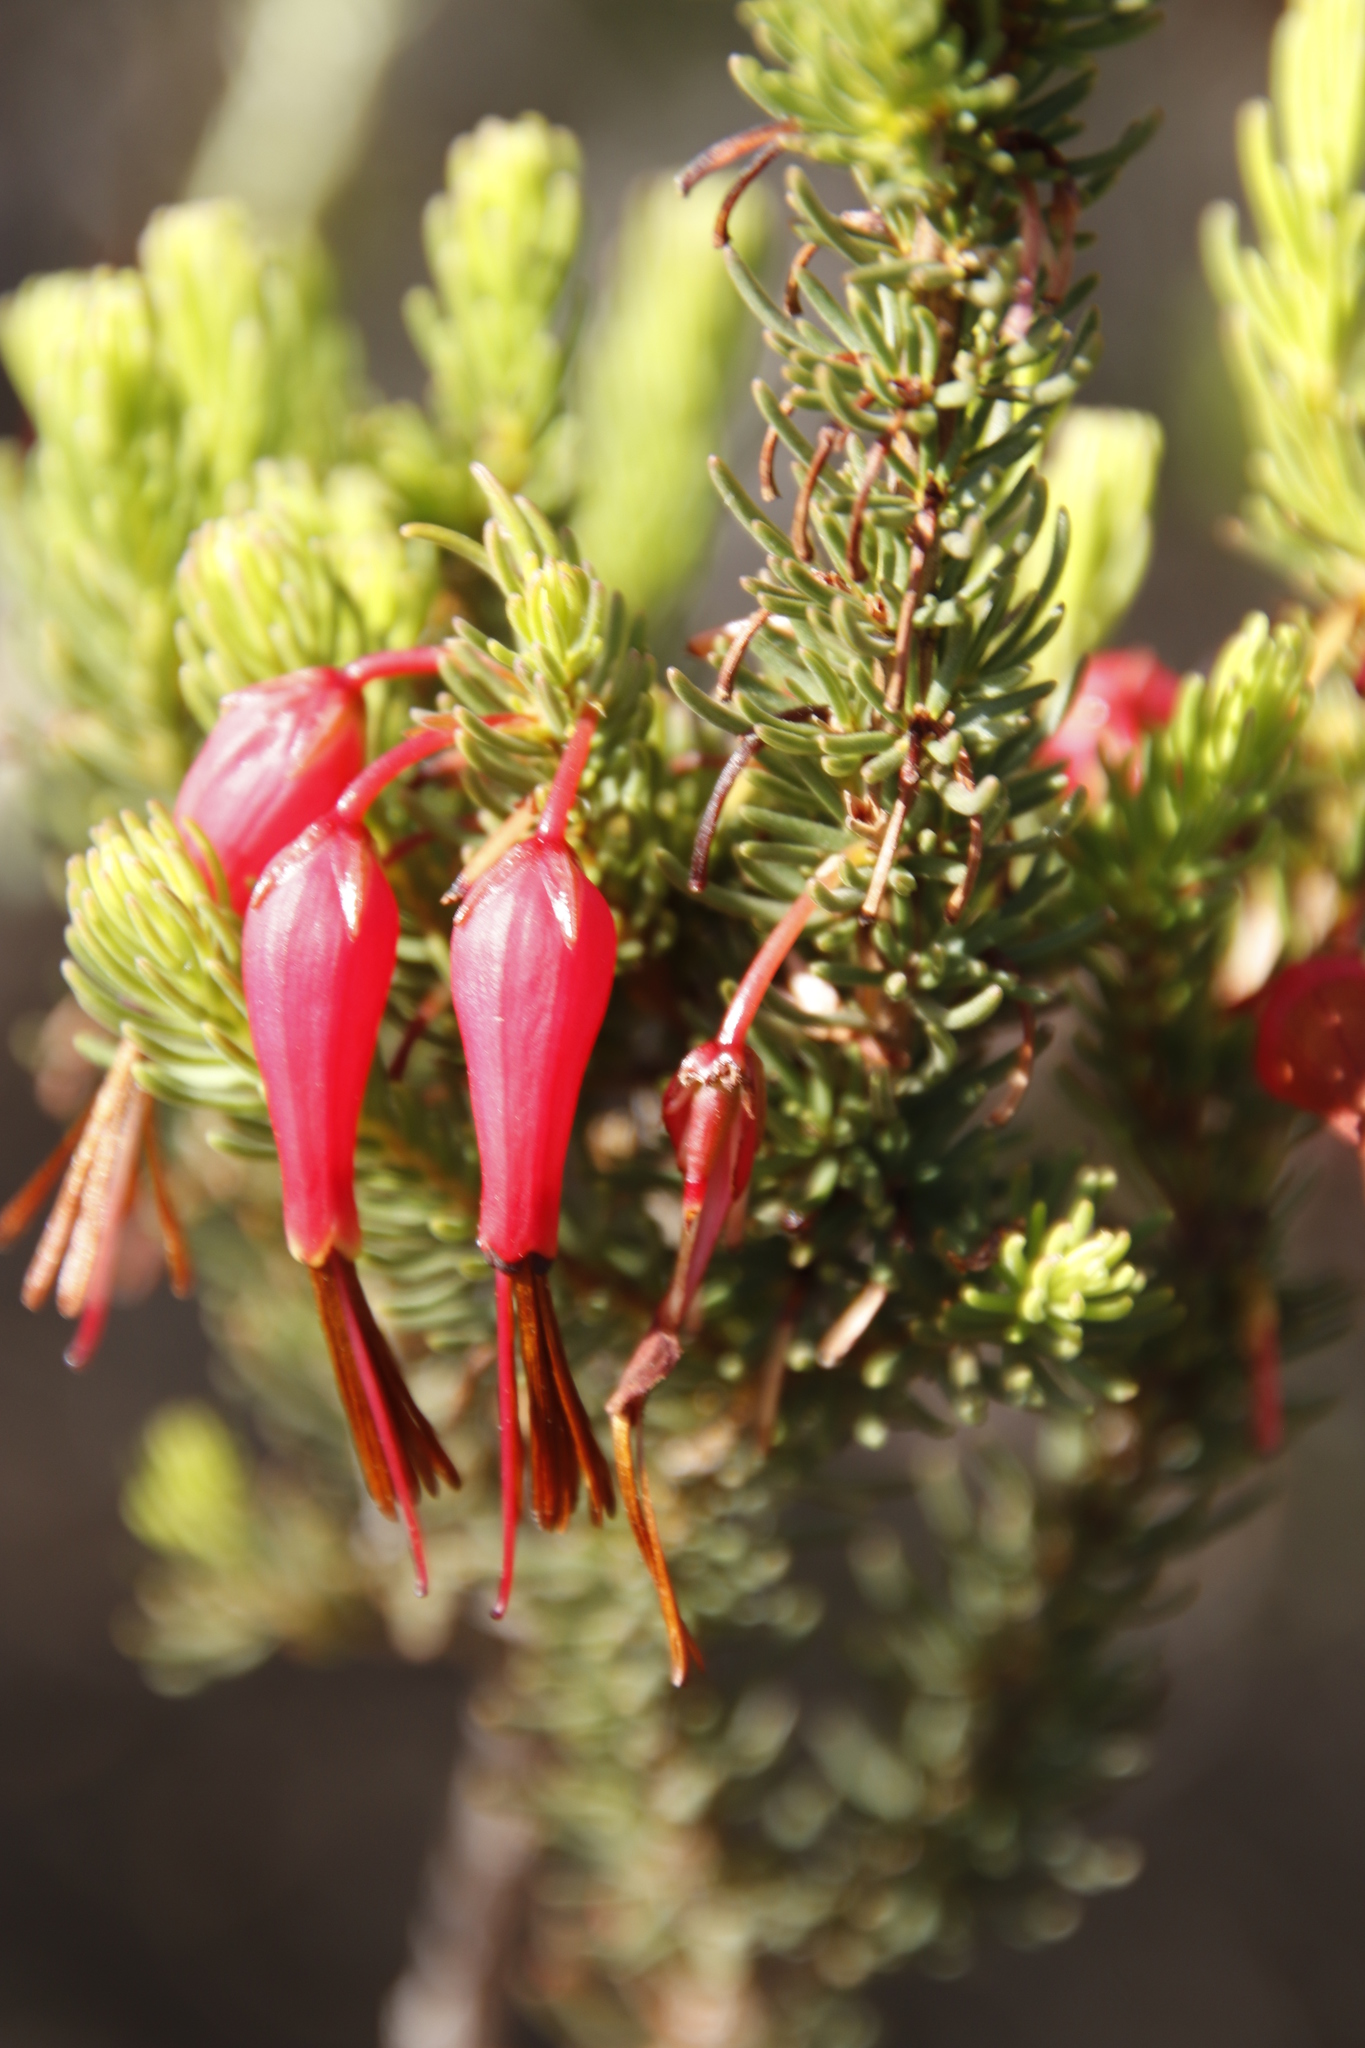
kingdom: Plantae
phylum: Tracheophyta
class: Magnoliopsida
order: Ericales
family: Ericaceae
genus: Erica
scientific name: Erica plukenetii
